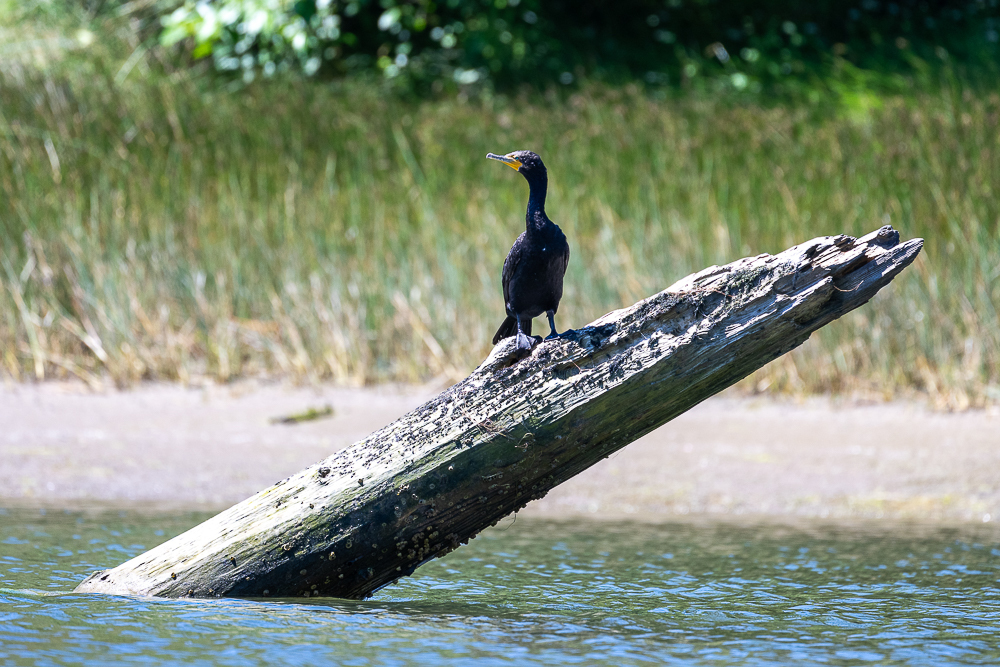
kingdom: Animalia
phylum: Chordata
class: Aves
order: Suliformes
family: Phalacrocoracidae
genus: Phalacrocorax
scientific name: Phalacrocorax auritus
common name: Double-crested cormorant
